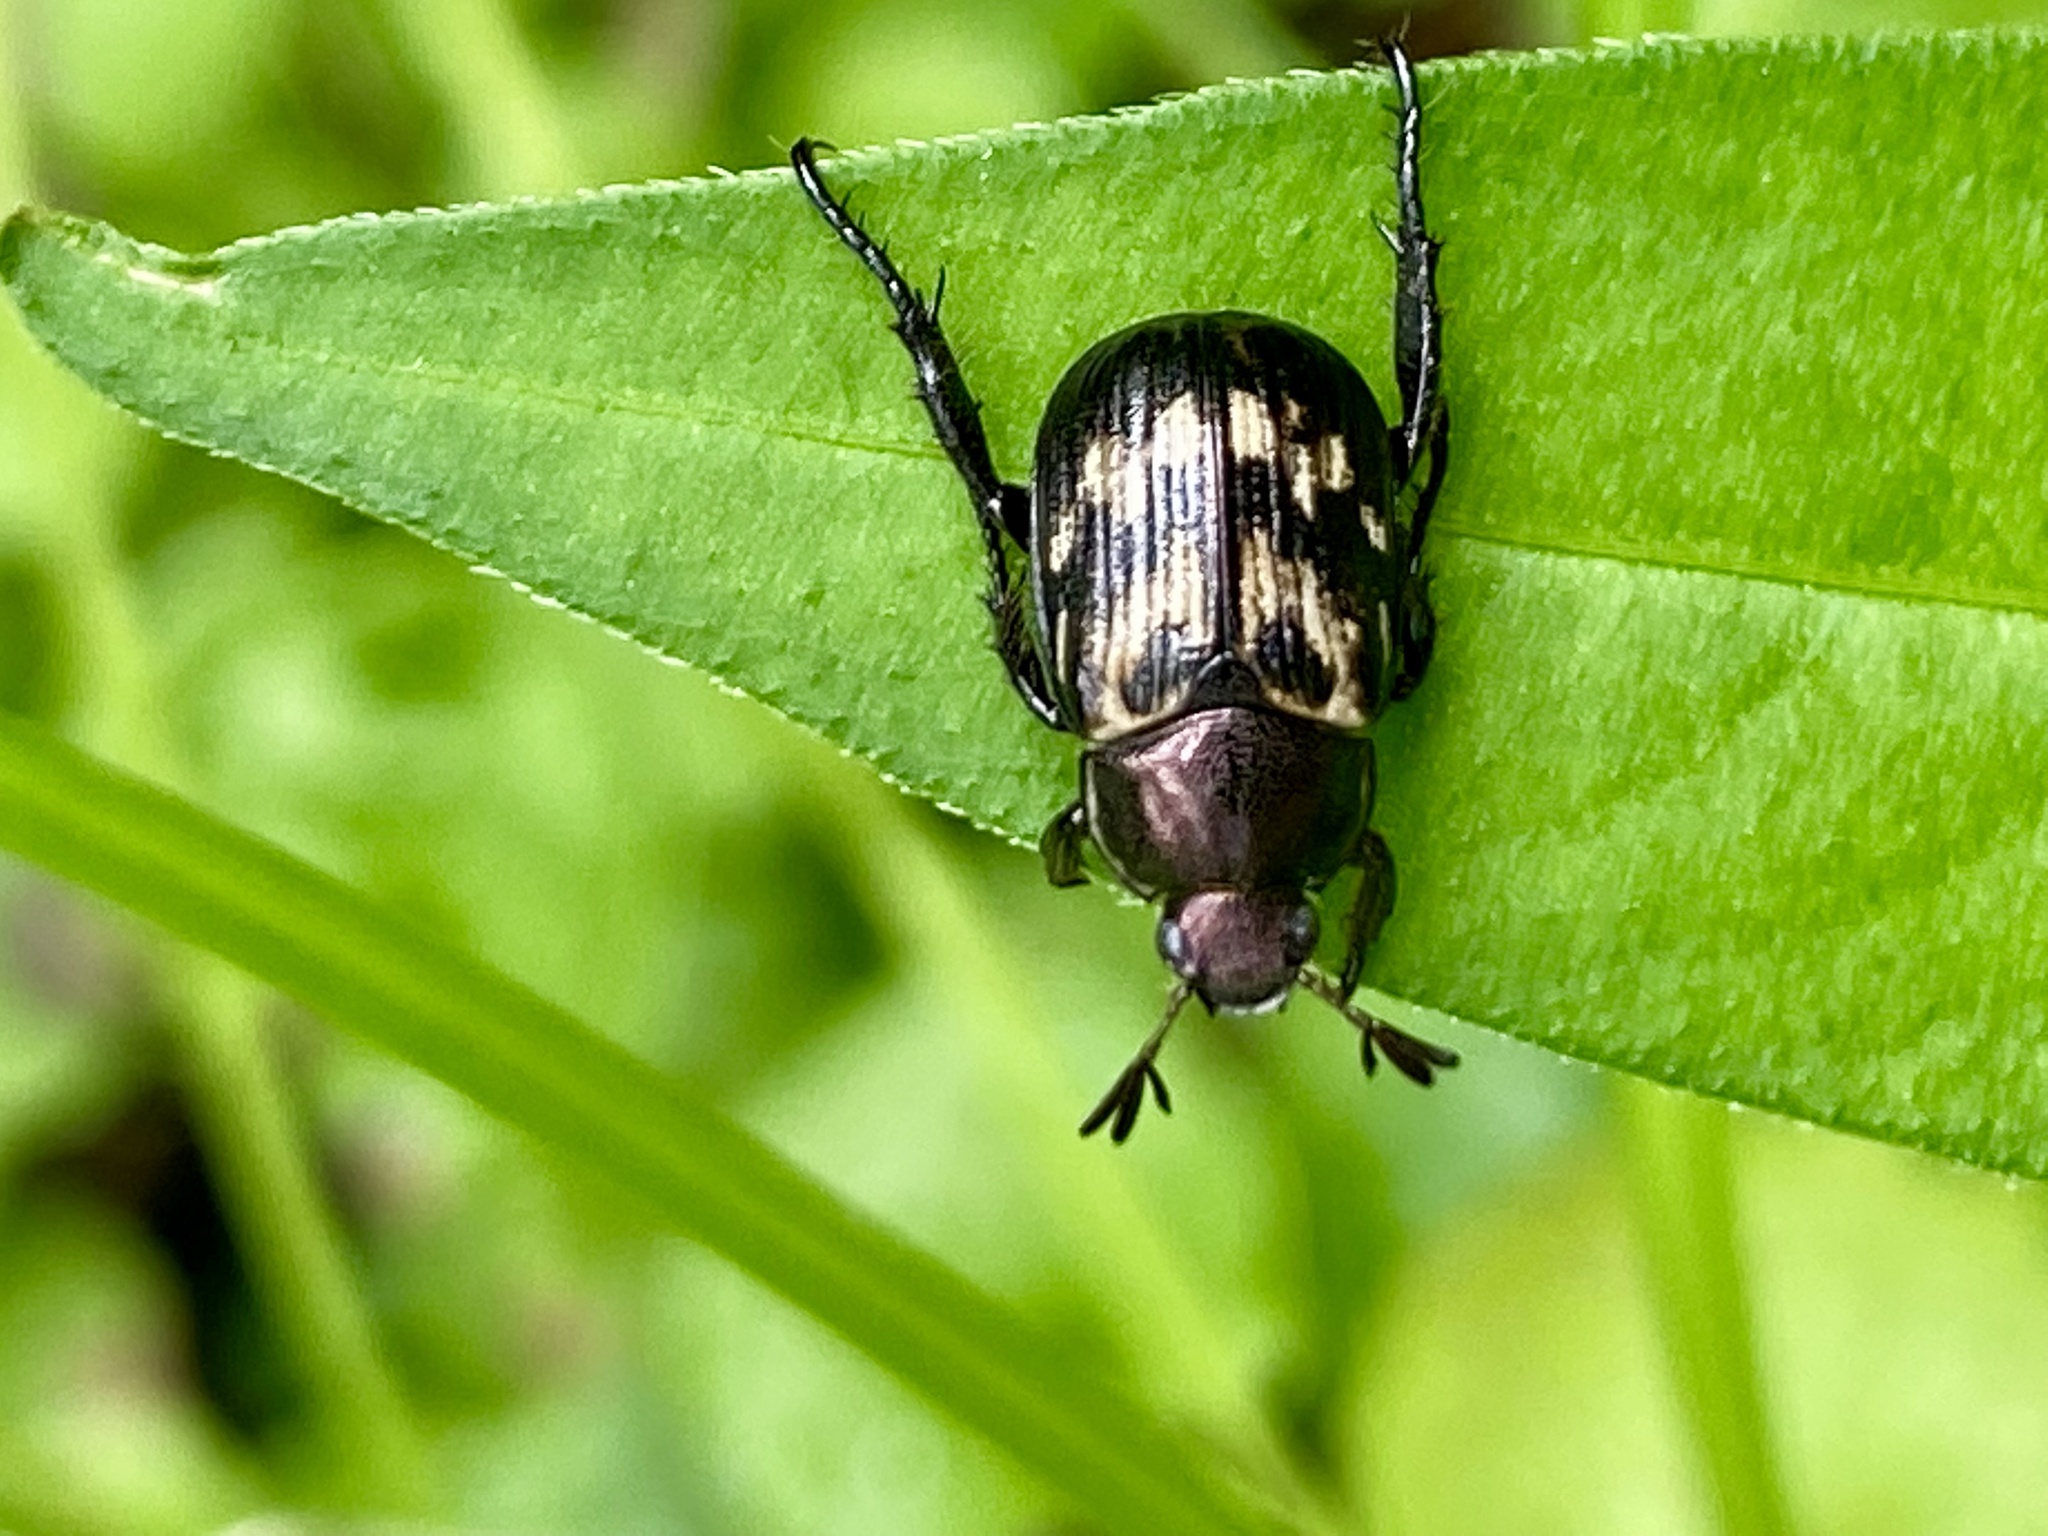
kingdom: Animalia
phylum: Arthropoda
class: Insecta
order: Coleoptera
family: Scarabaeidae
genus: Exomala
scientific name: Exomala orientalis
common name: Oriental beetle
